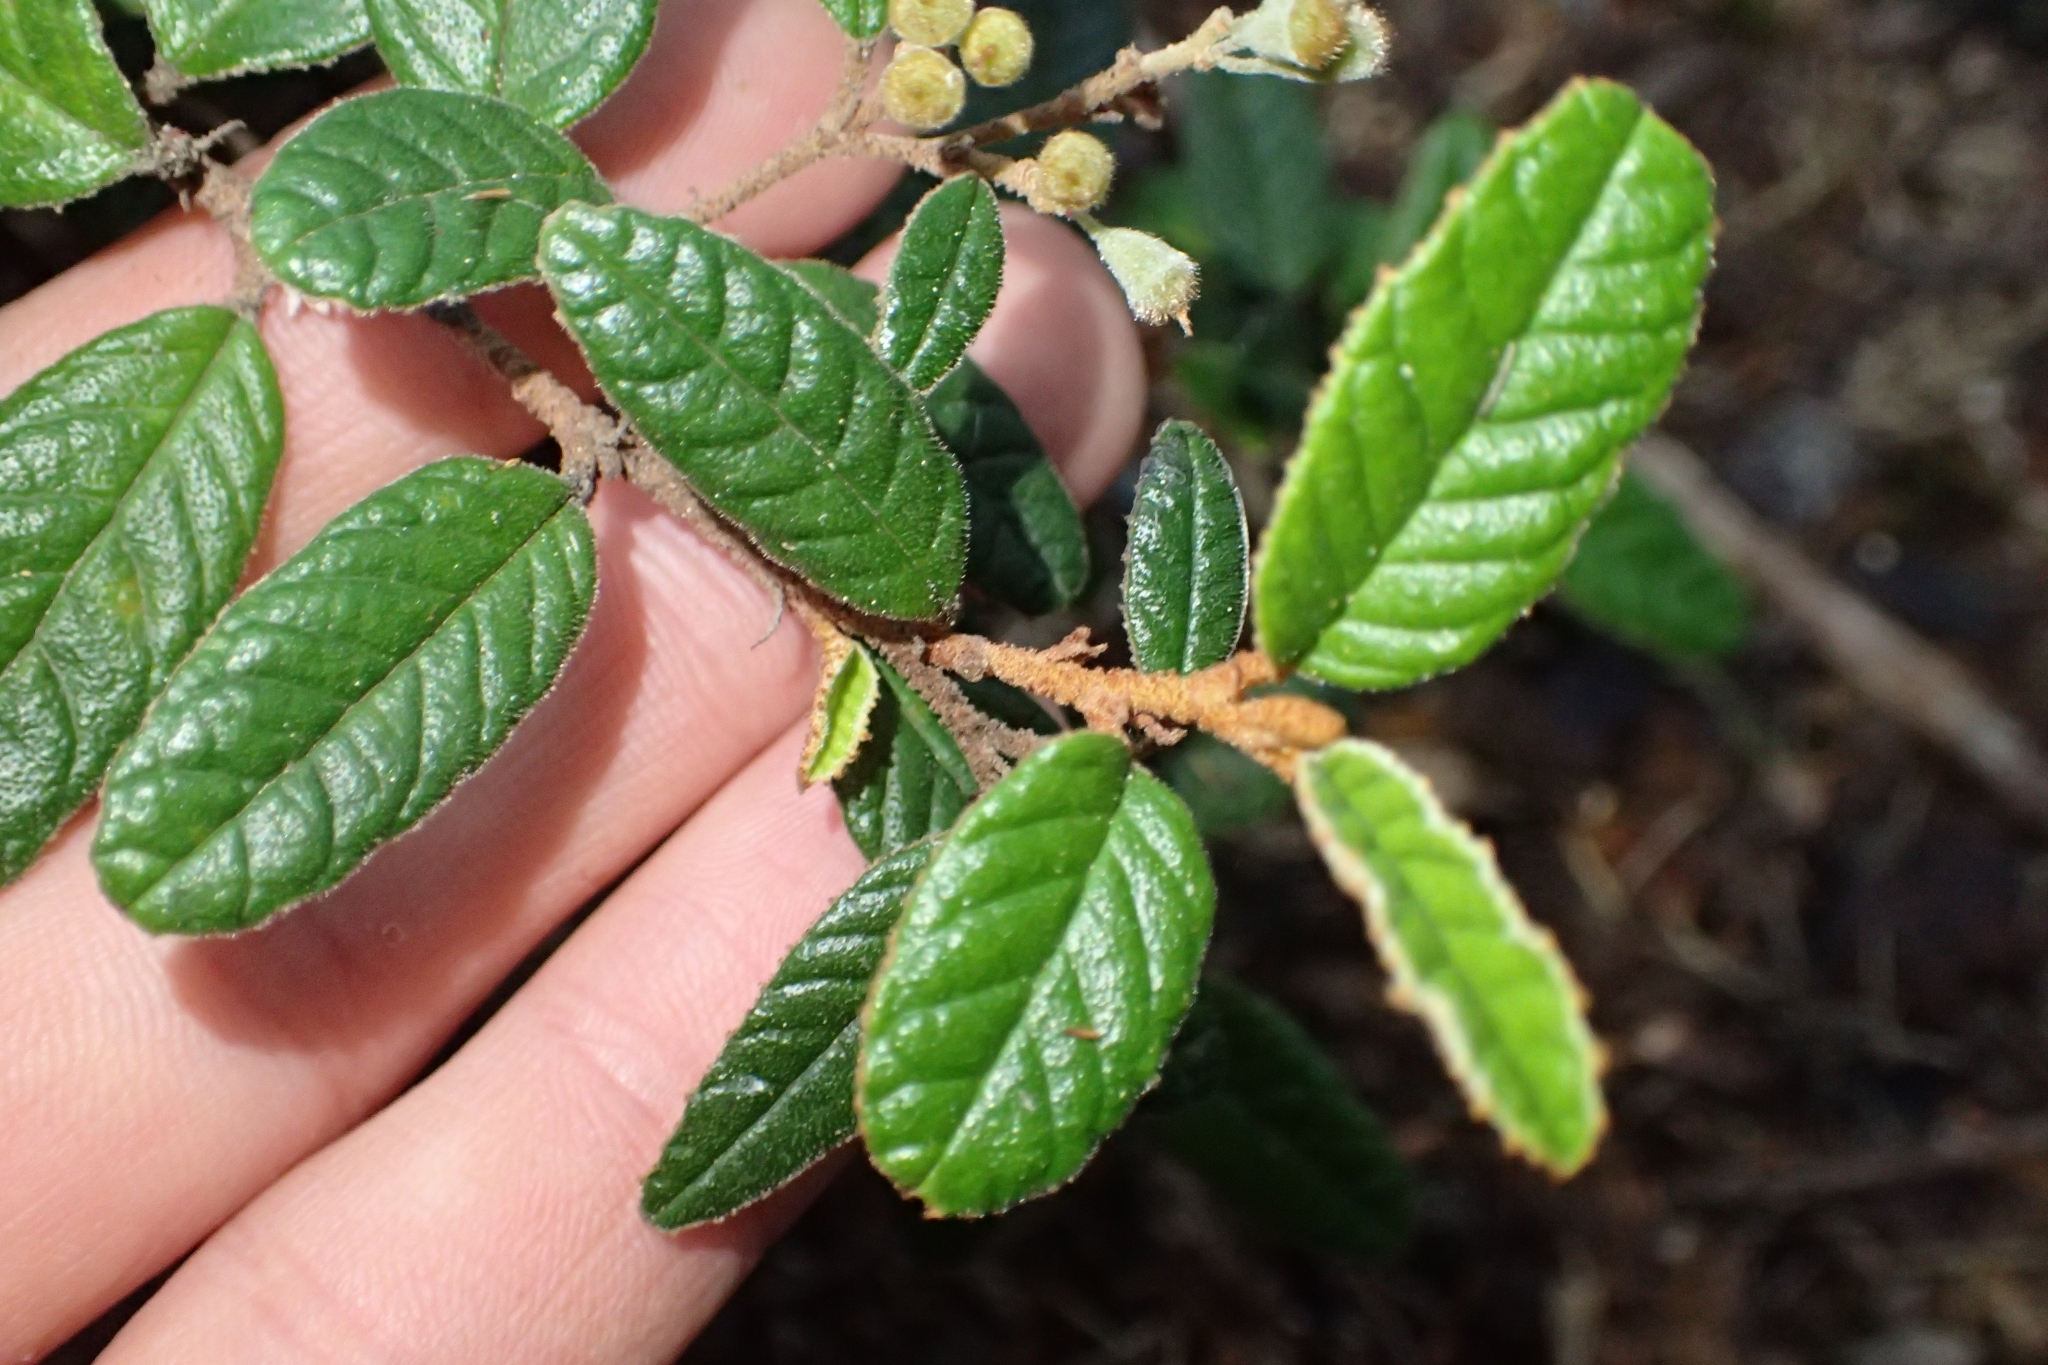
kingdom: Plantae
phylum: Tracheophyta
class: Magnoliopsida
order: Rosales
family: Rhamnaceae
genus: Pomaderris
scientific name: Pomaderris edgerleyi
